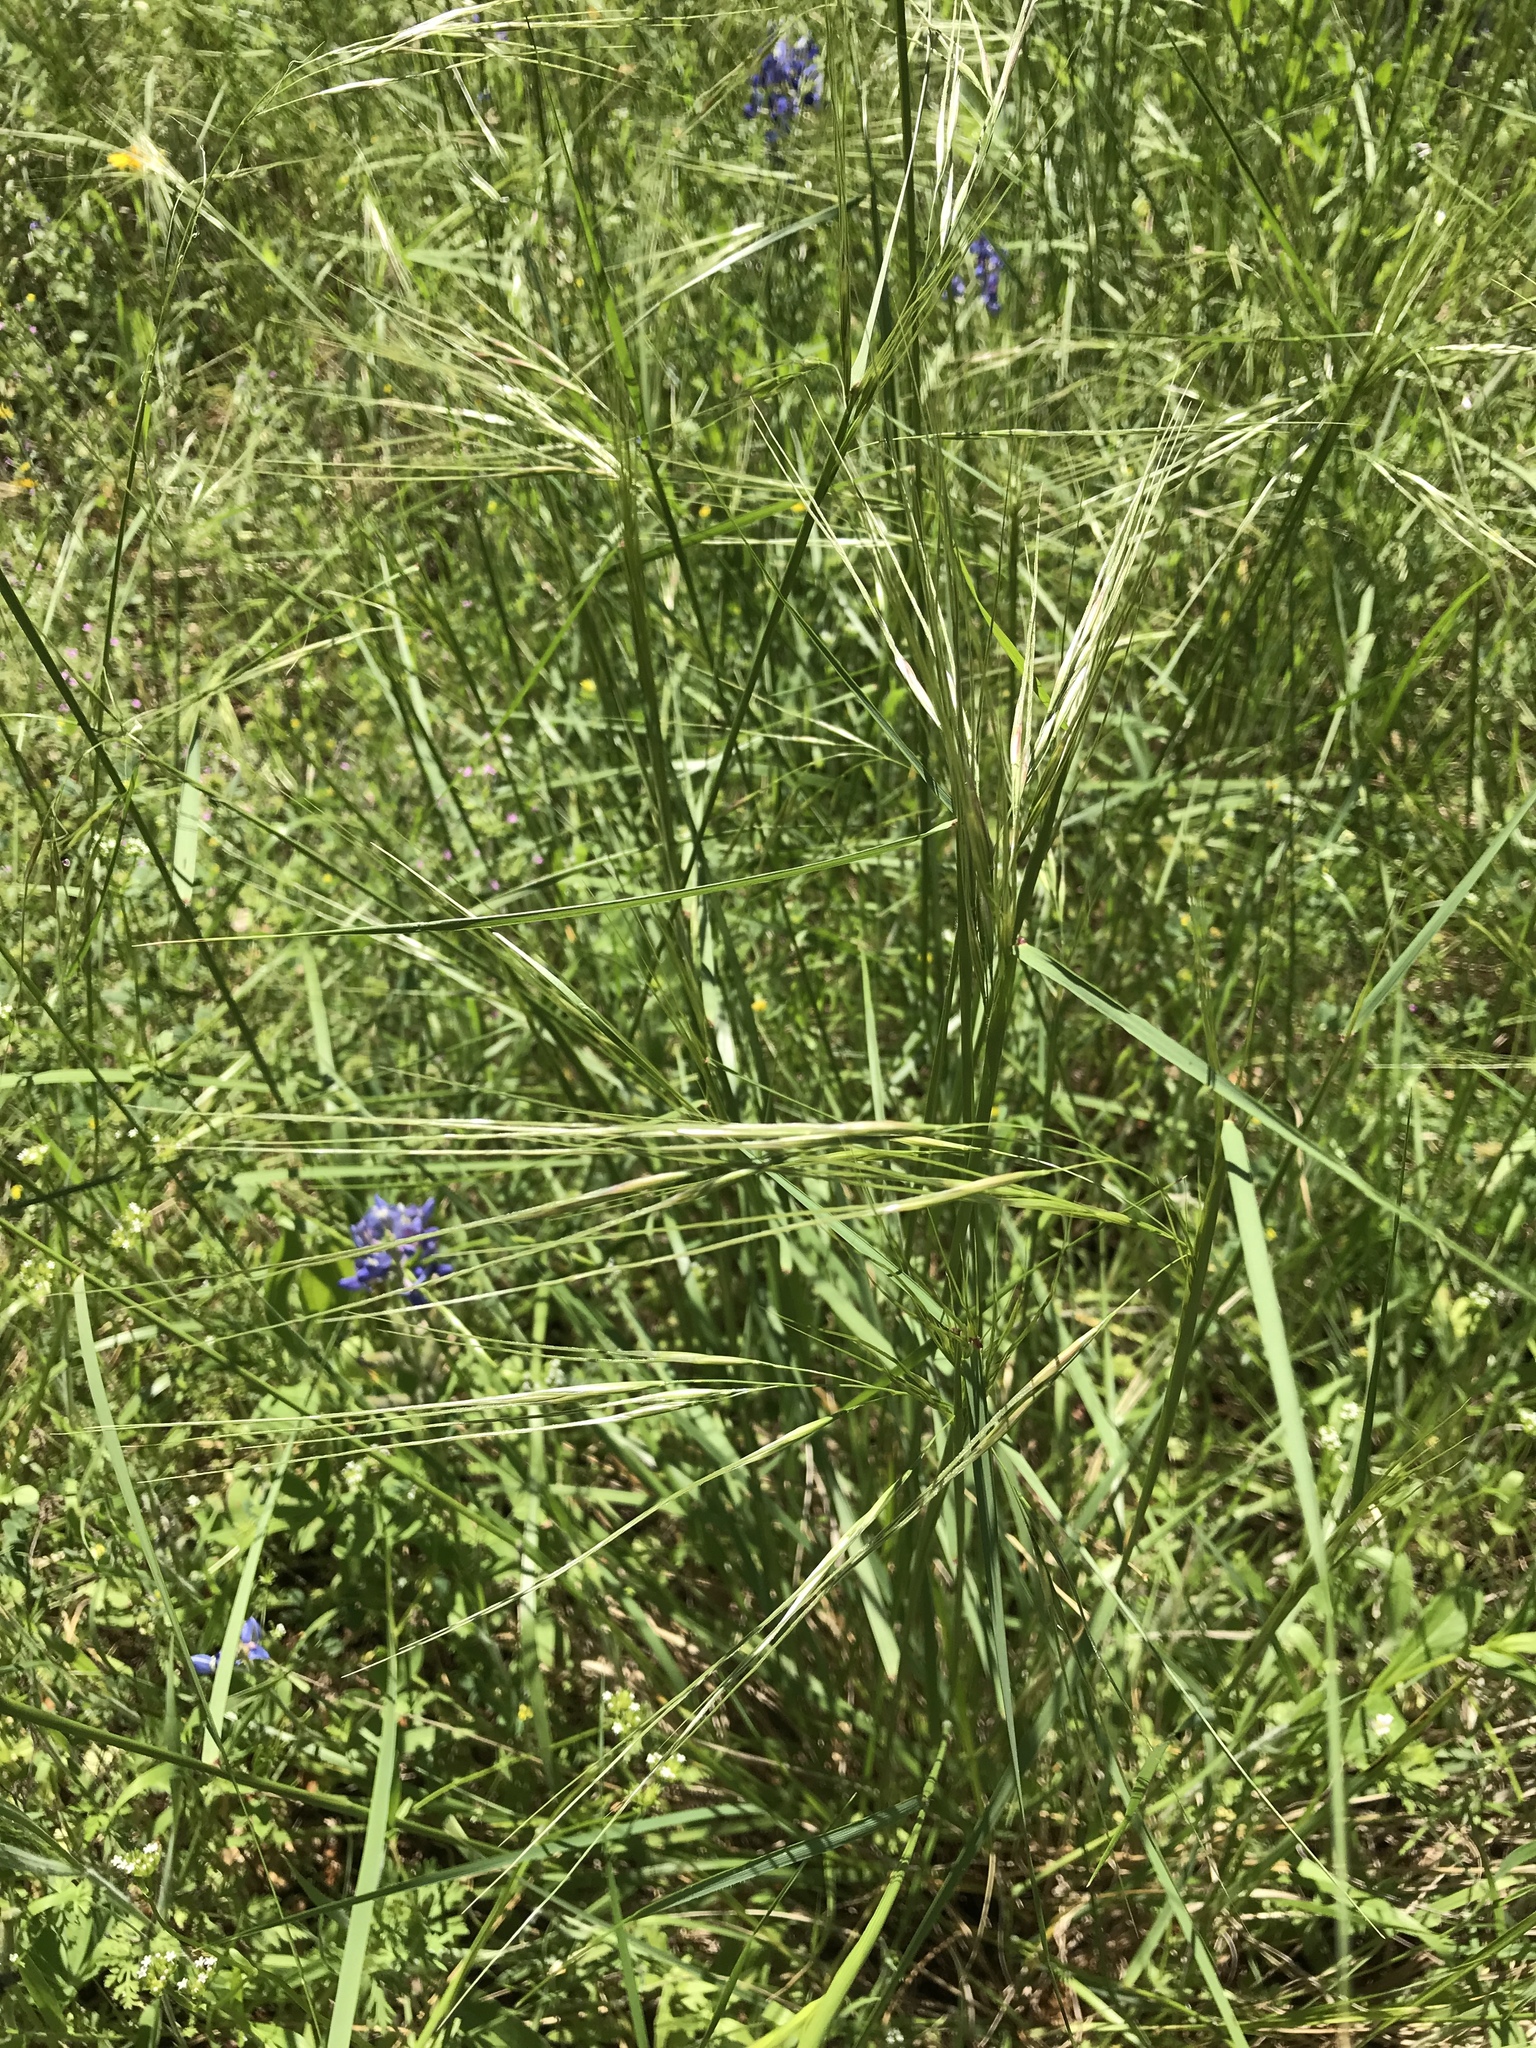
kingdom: Plantae
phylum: Tracheophyta
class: Liliopsida
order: Poales
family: Poaceae
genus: Nassella
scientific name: Nassella leucotricha
